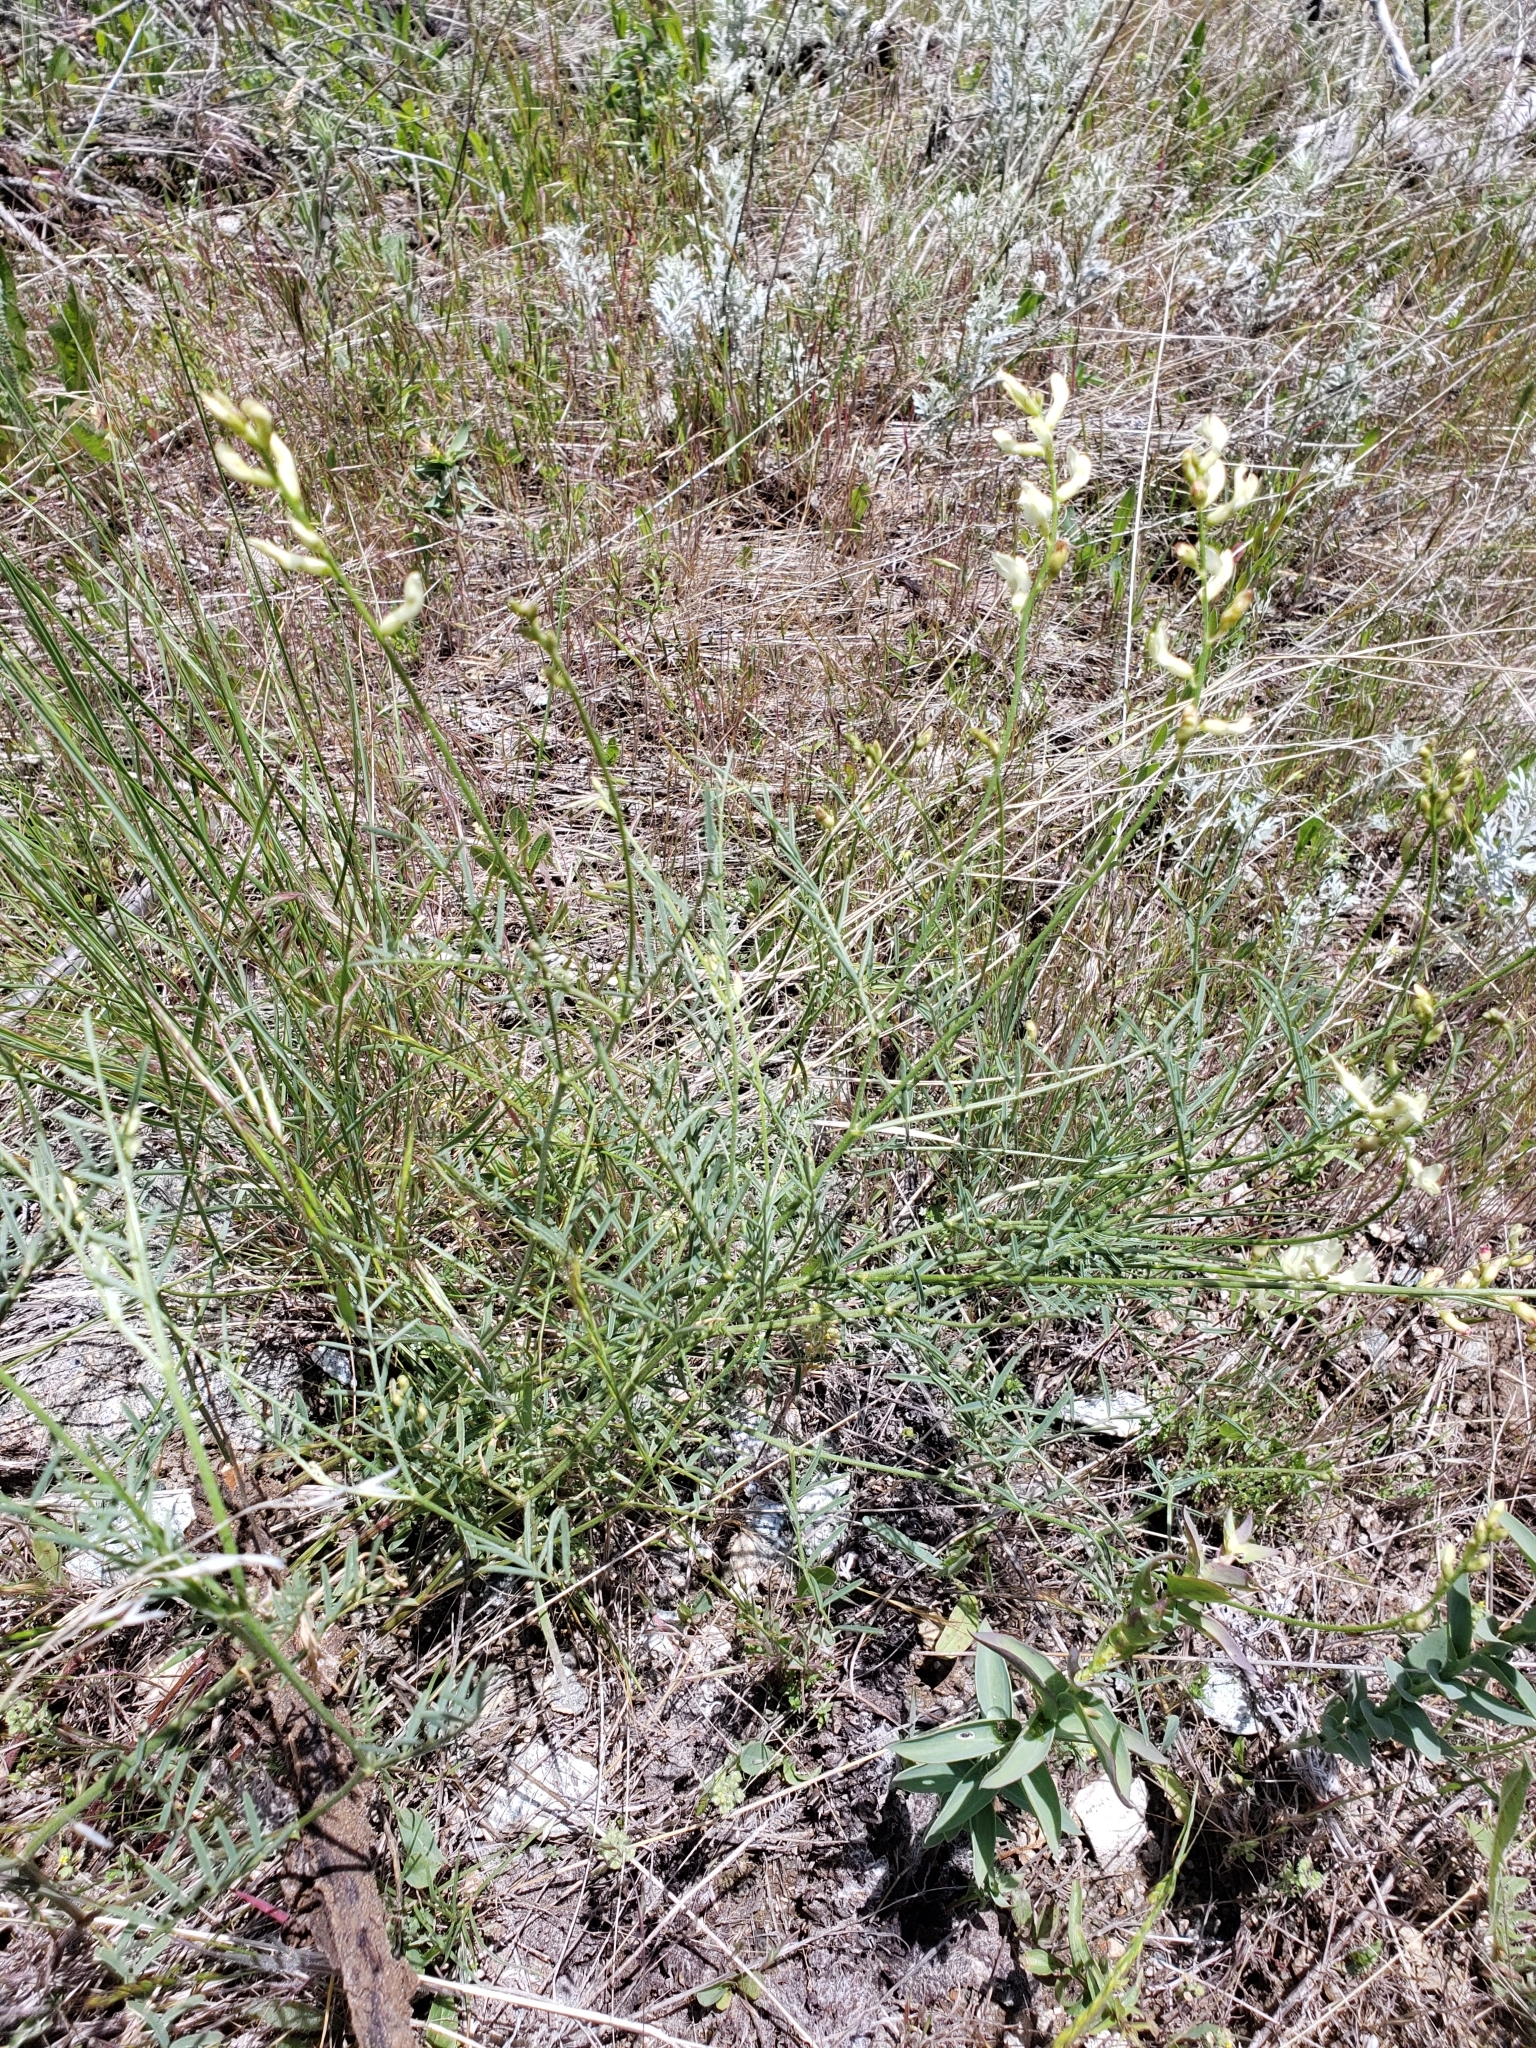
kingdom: Plantae
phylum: Tracheophyta
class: Magnoliopsida
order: Fabales
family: Fabaceae
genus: Astragalus
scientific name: Astragalus cusickii
